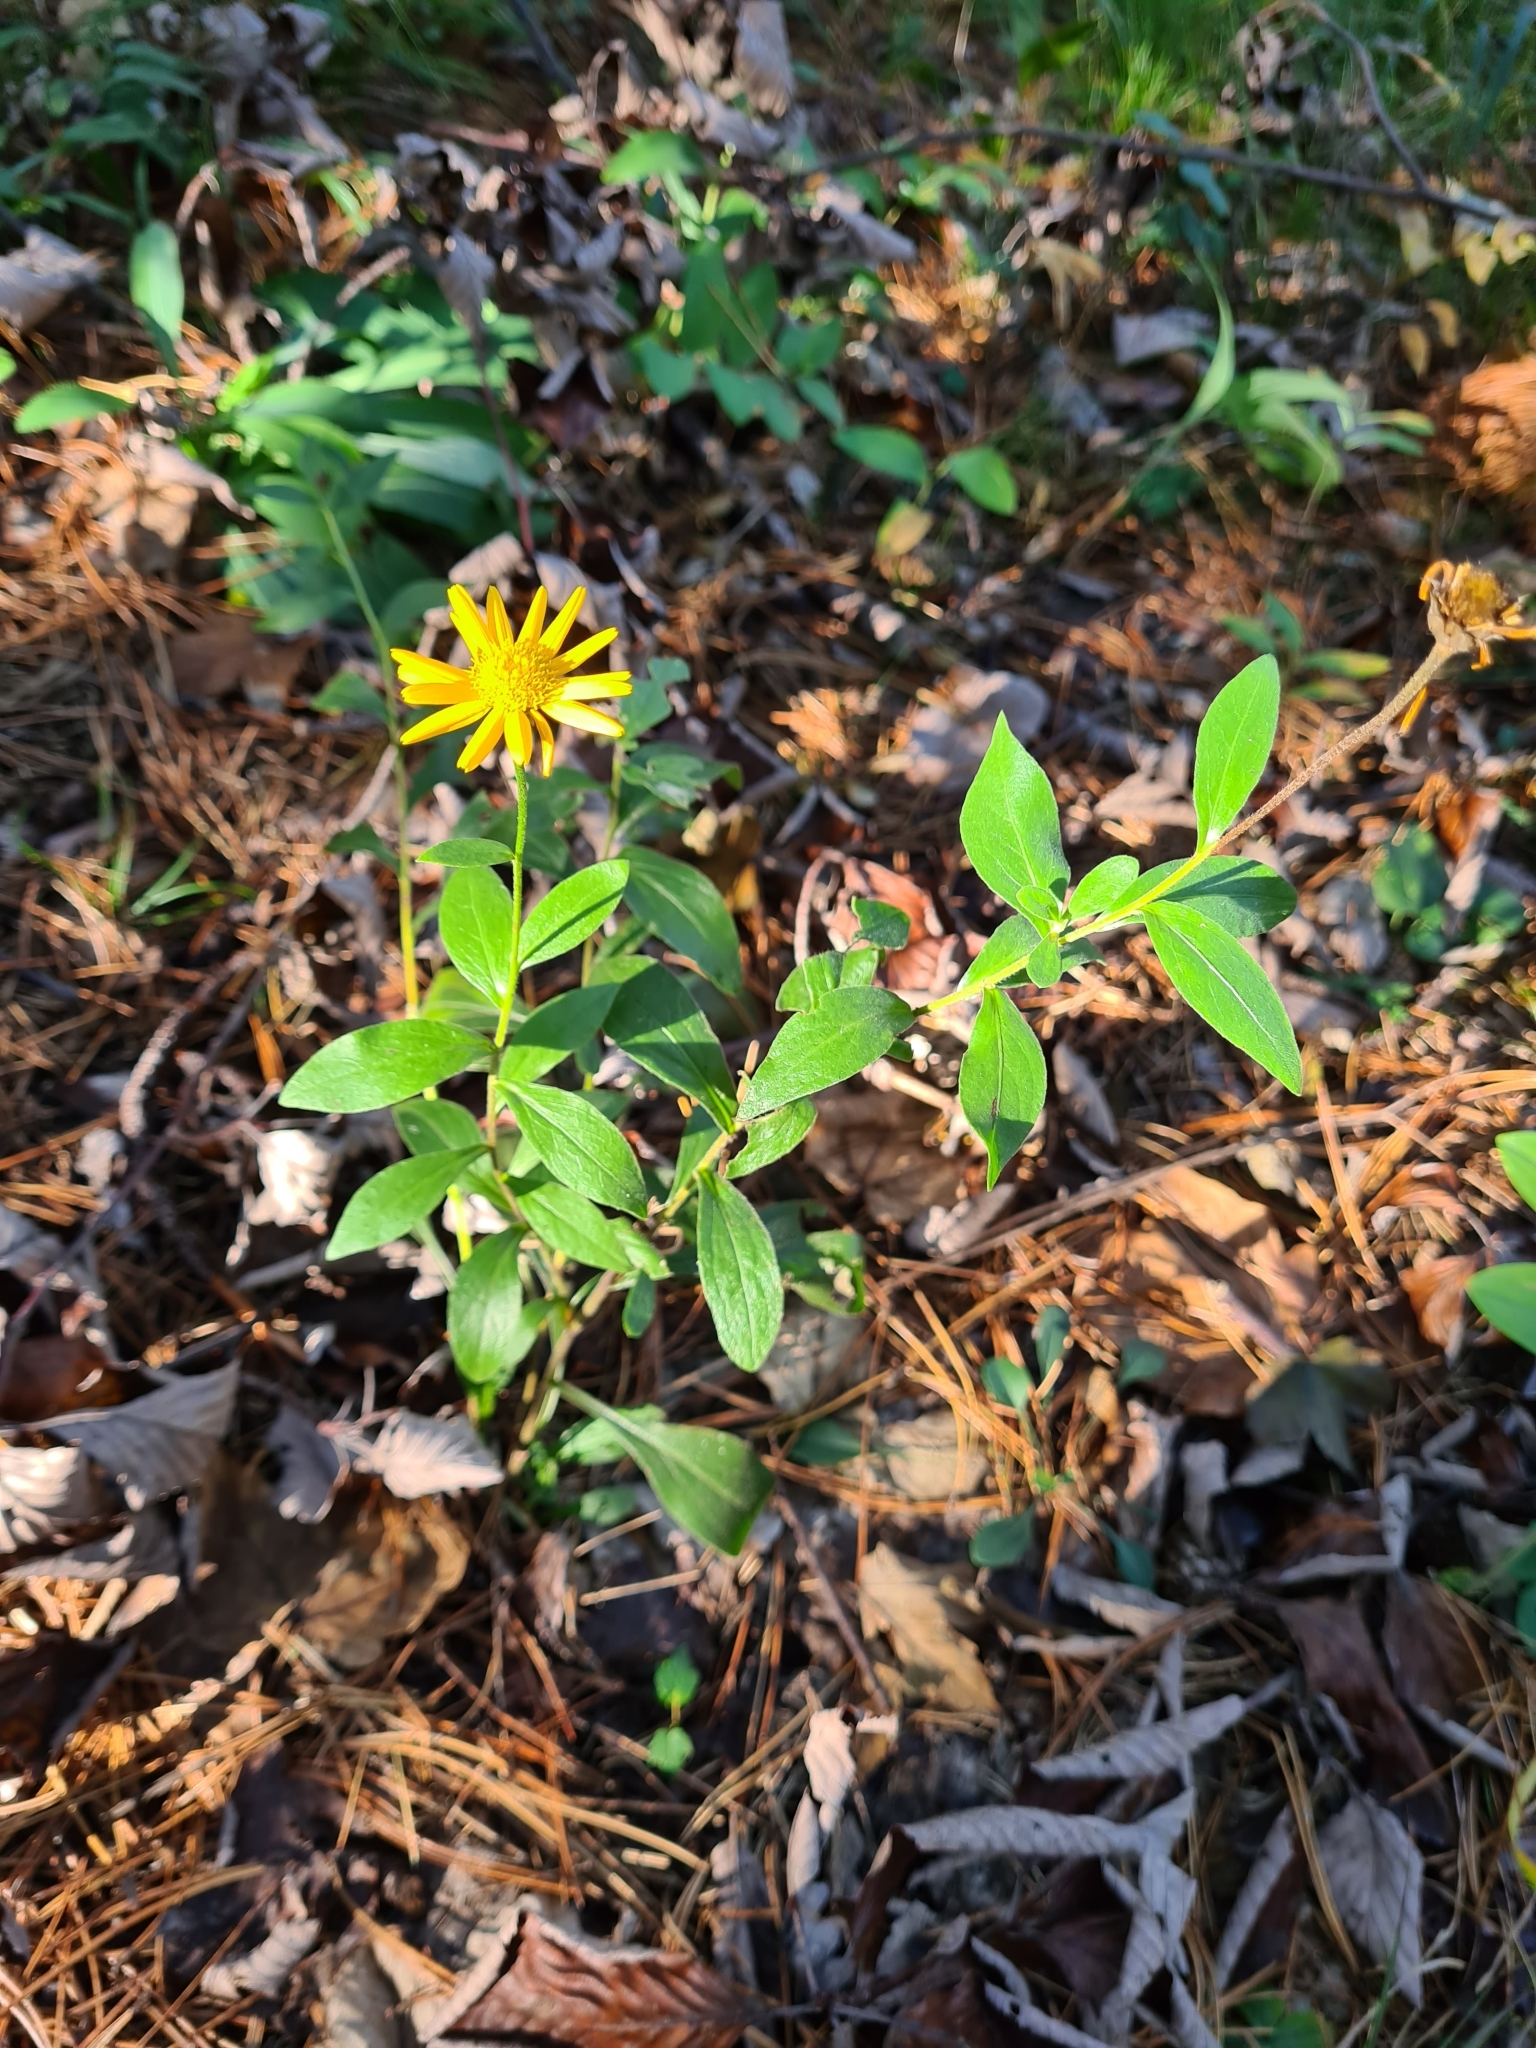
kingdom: Plantae
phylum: Tracheophyta
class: Magnoliopsida
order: Asterales
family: Asteraceae
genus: Buphthalmum
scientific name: Buphthalmum salicifolium
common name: Willow-leaved yellow-oxeye
